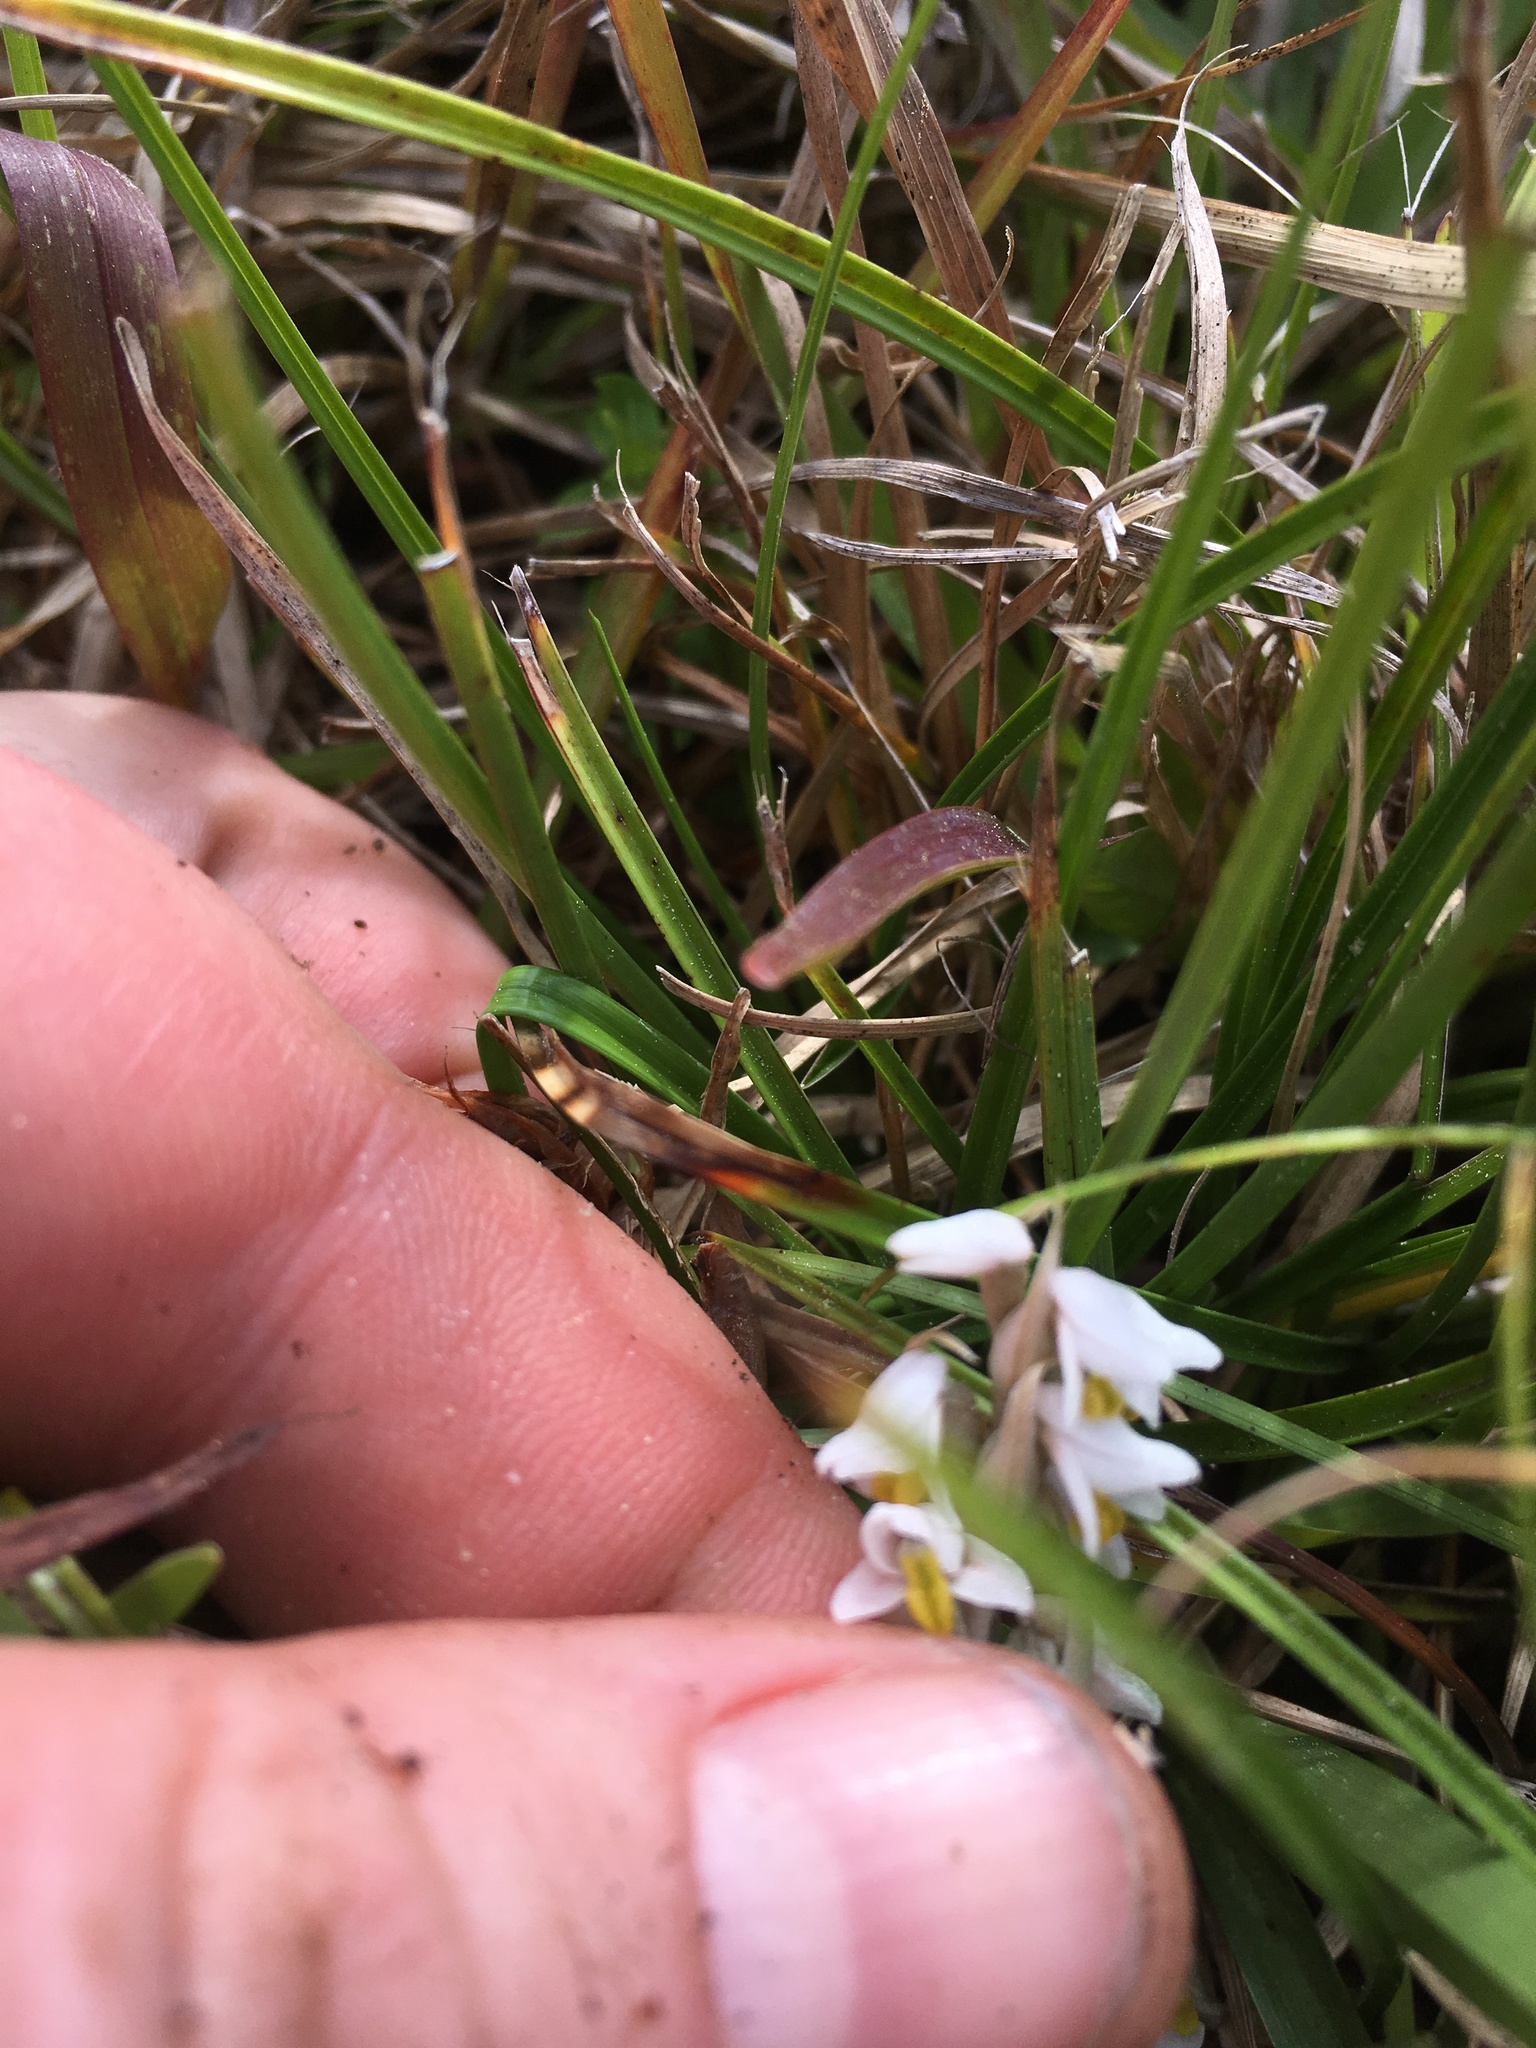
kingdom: Plantae
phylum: Tracheophyta
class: Liliopsida
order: Asparagales
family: Orchidaceae
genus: Zeuxine
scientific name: Zeuxine strateumatica
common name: Soldier's orchid
